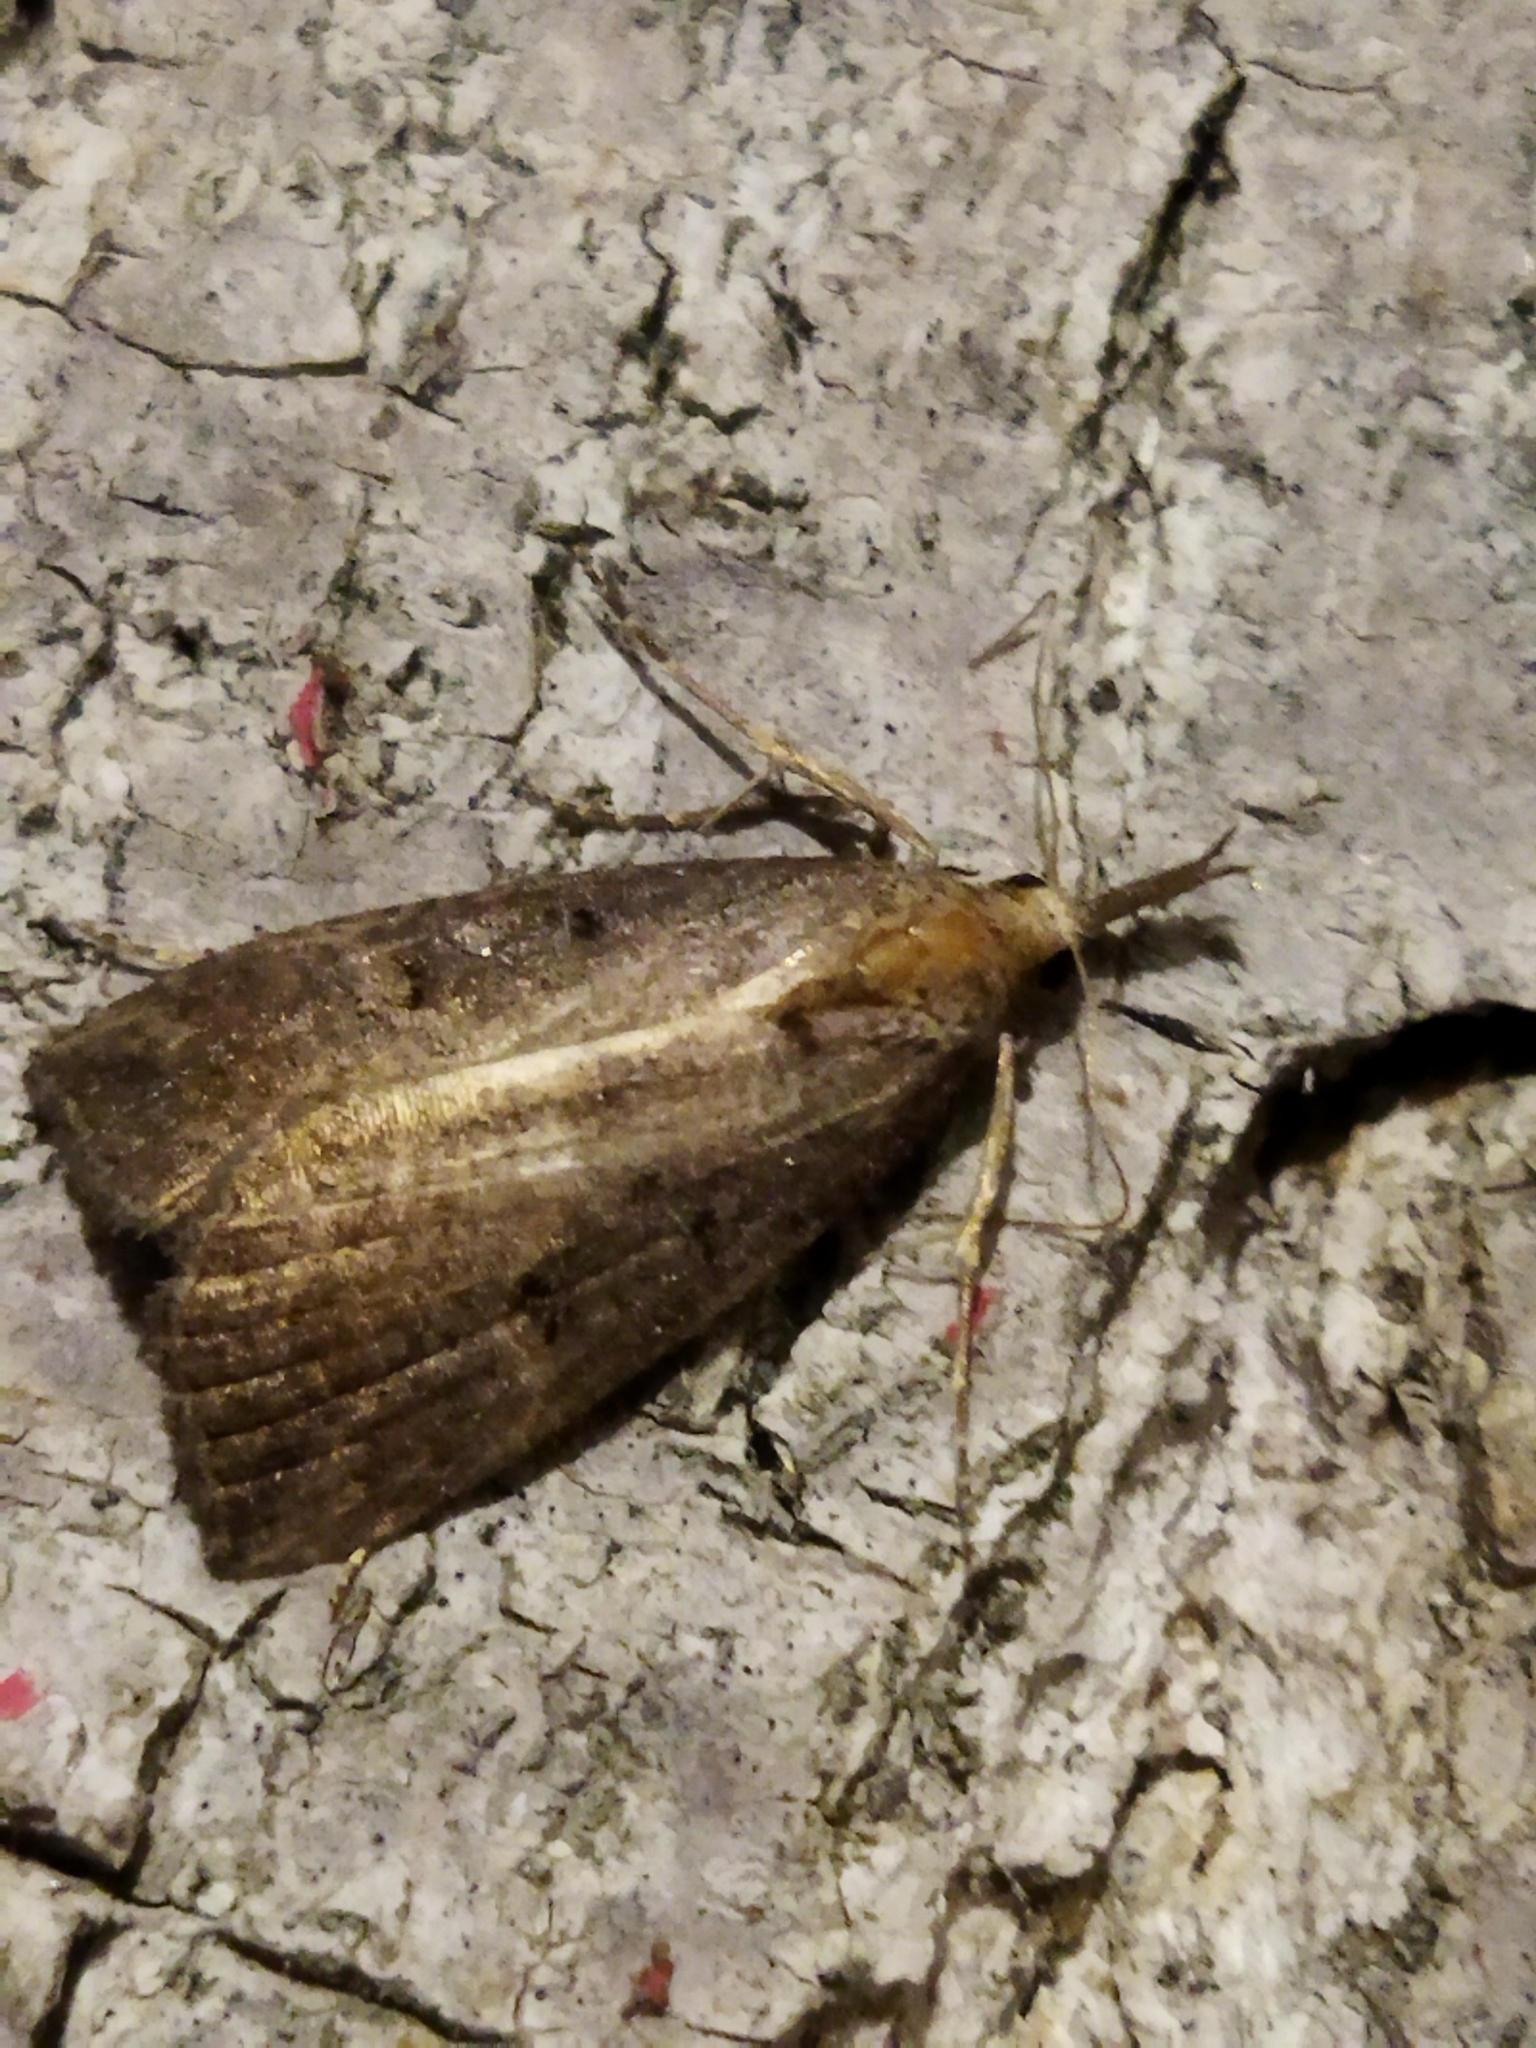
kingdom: Animalia
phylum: Arthropoda
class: Insecta
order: Lepidoptera
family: Erebidae
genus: Hypena
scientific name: Hypena rostralis
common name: Buttoned snout
